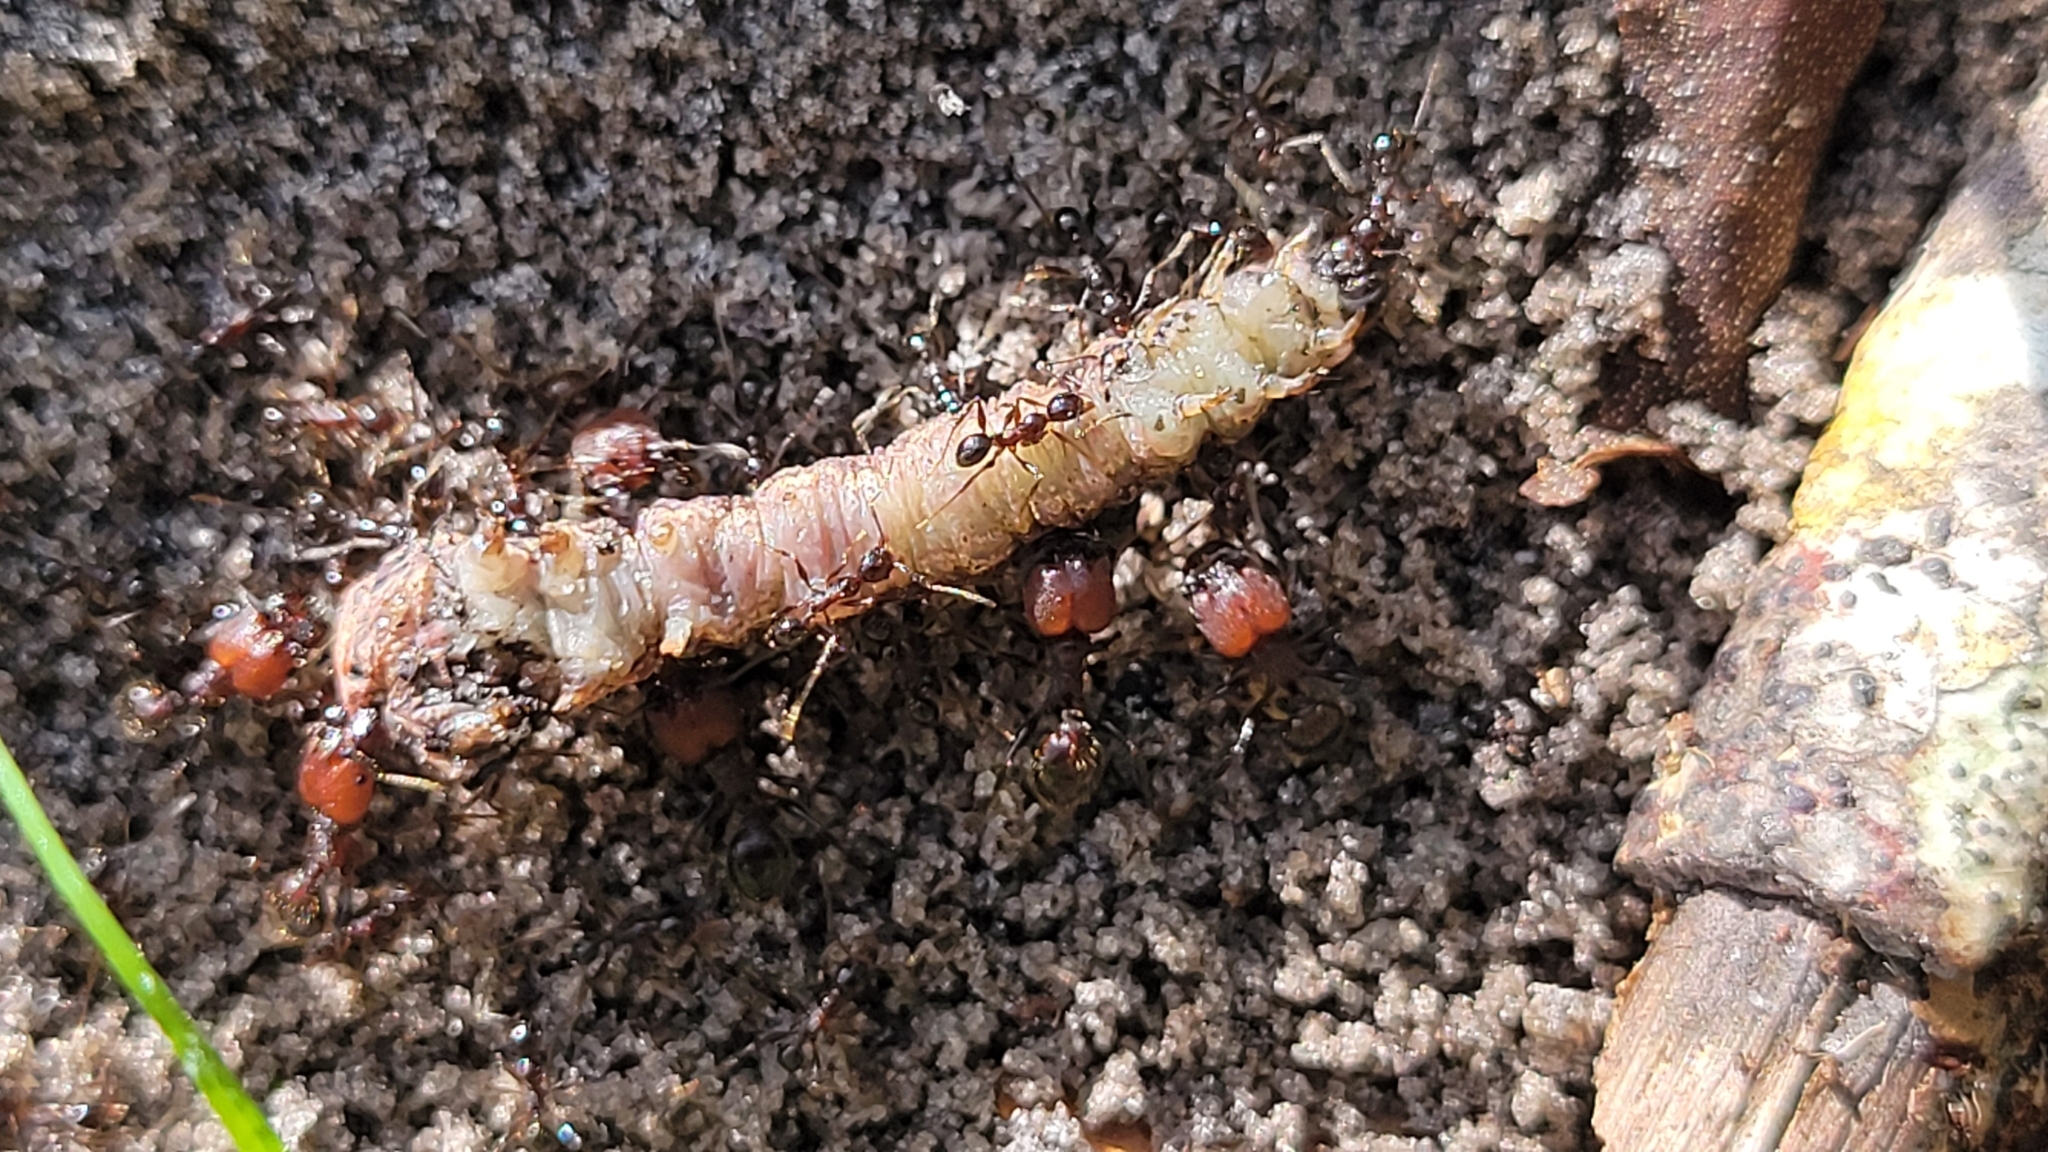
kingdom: Animalia
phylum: Arthropoda
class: Insecta
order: Hymenoptera
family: Formicidae
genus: Pheidole
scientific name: Pheidole obscurithorax
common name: Obscure big-headed ant
